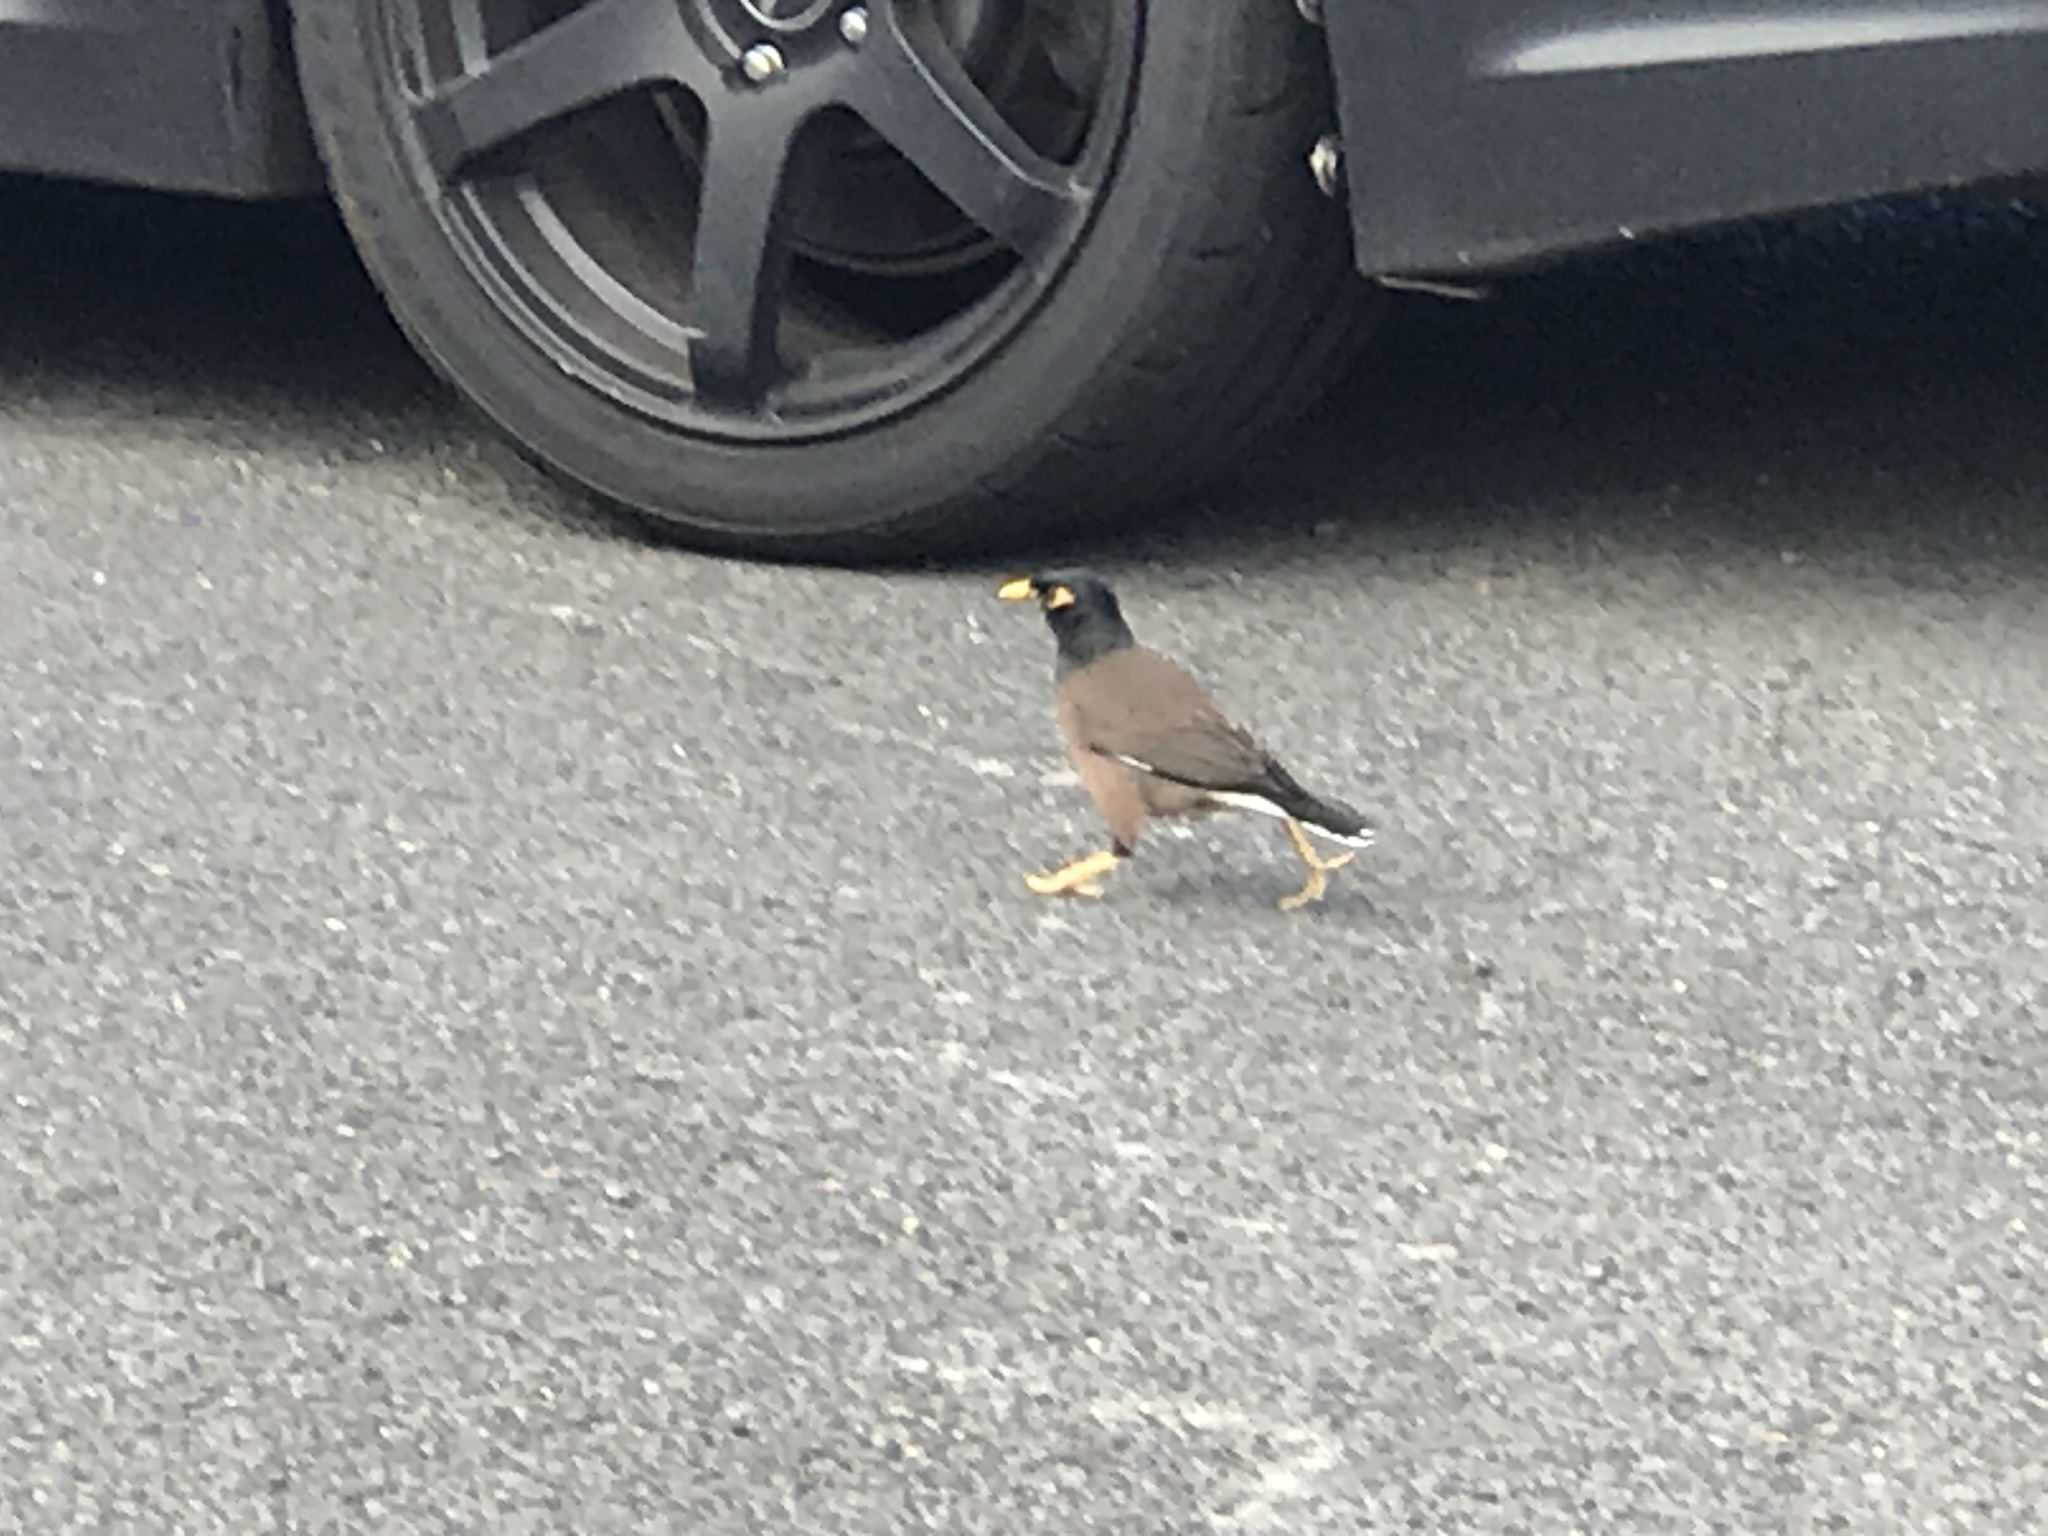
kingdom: Animalia
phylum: Chordata
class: Aves
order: Passeriformes
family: Sturnidae
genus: Acridotheres
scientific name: Acridotheres tristis
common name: Common myna
